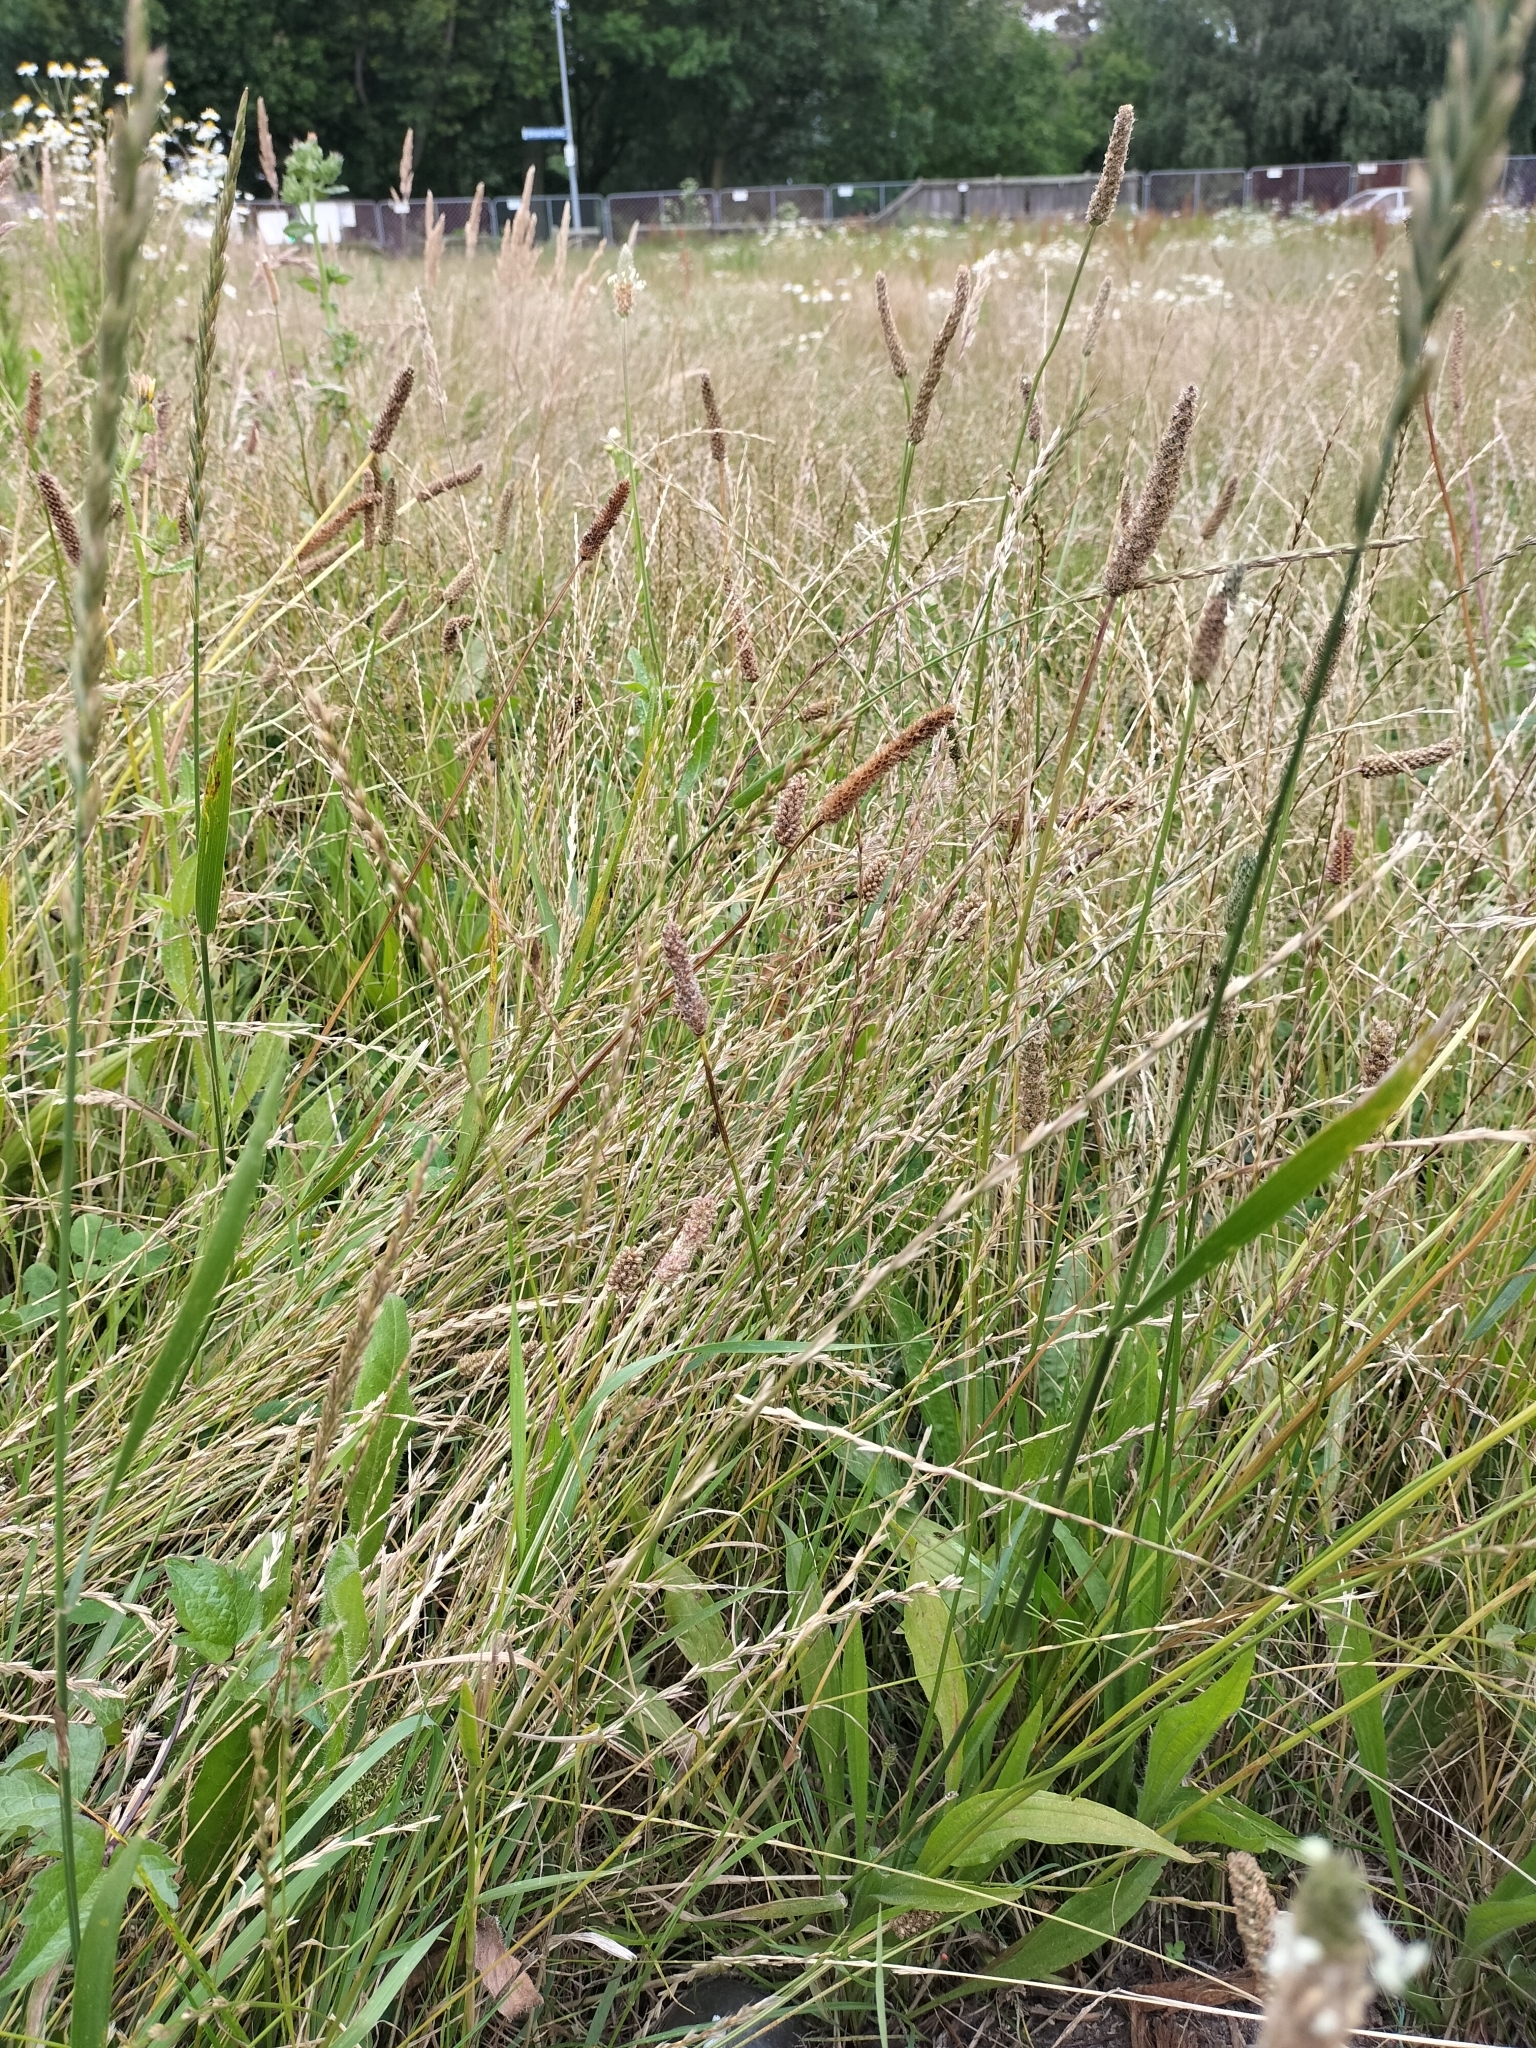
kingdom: Plantae
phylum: Tracheophyta
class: Liliopsida
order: Poales
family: Poaceae
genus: Lolium
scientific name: Lolium perenne
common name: Perennial ryegrass
